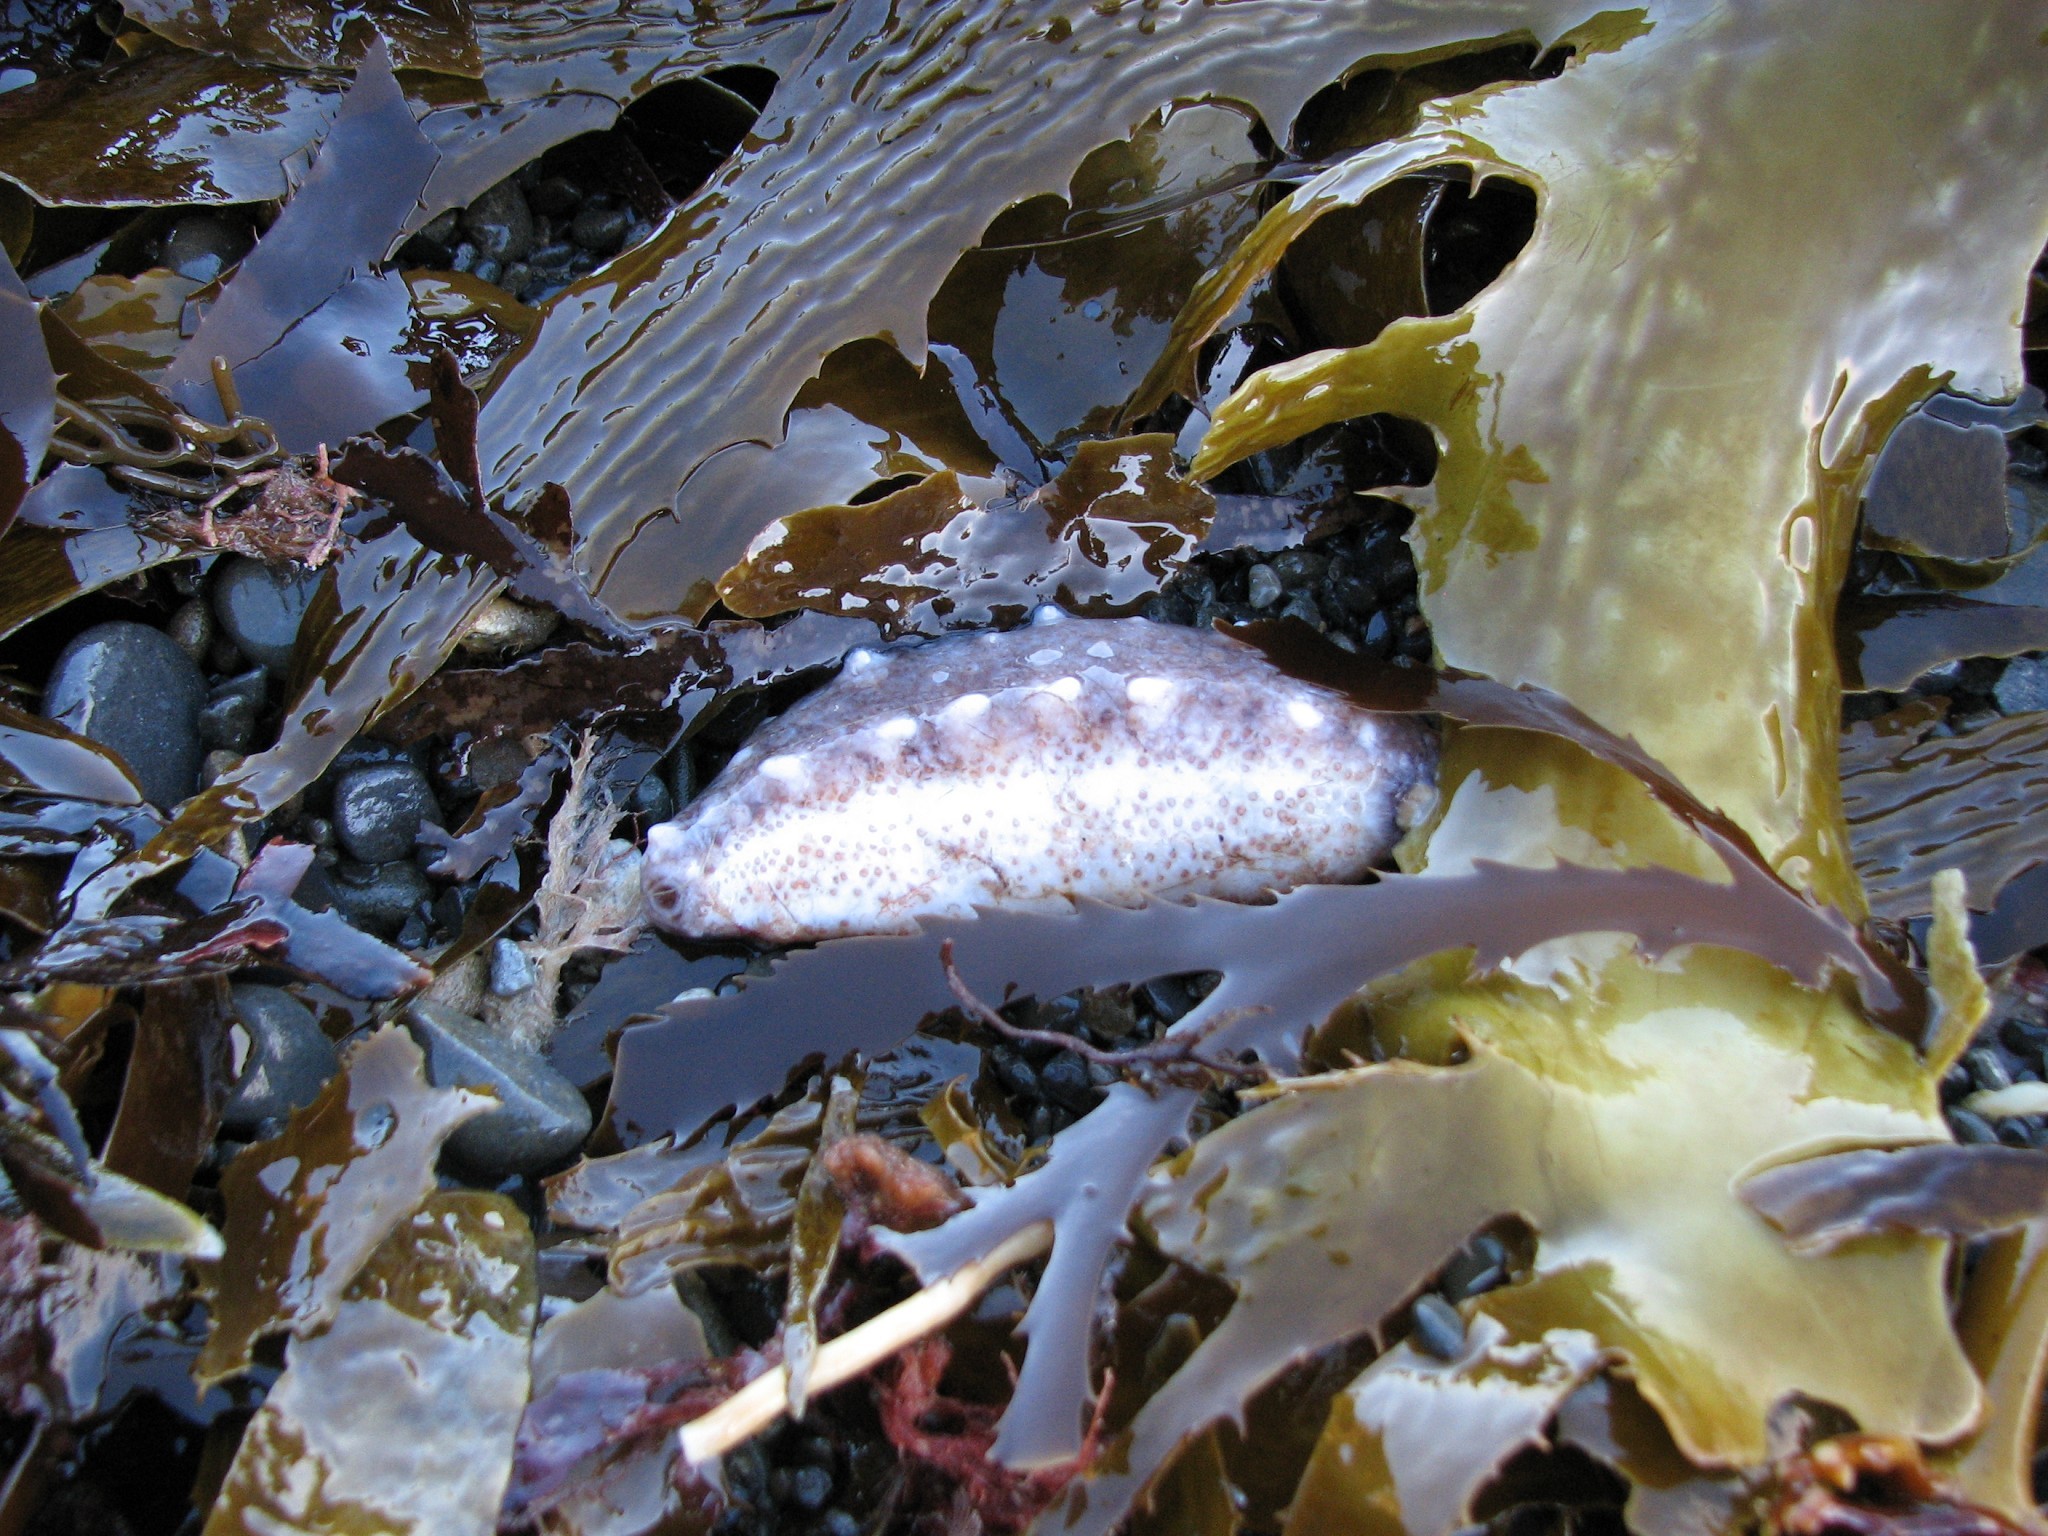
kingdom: Animalia
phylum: Echinodermata
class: Holothuroidea
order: Synallactida
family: Stichopodidae
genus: Australostichopus
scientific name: Australostichopus mollis
